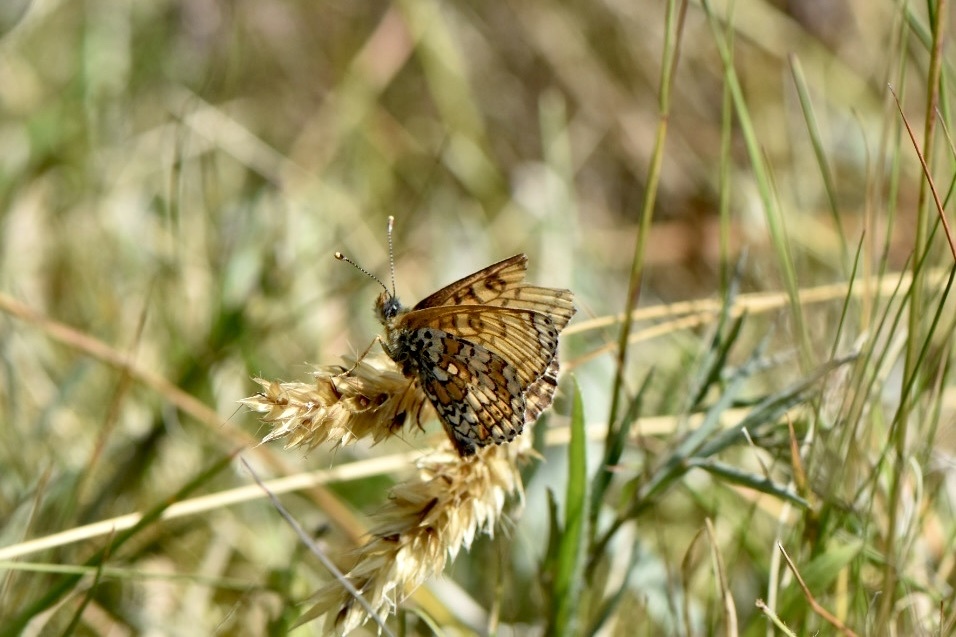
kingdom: Animalia
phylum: Arthropoda
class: Insecta
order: Lepidoptera
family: Nymphalidae
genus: Melitaea
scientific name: Melitaea cinxia
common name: Glanville fritillary
